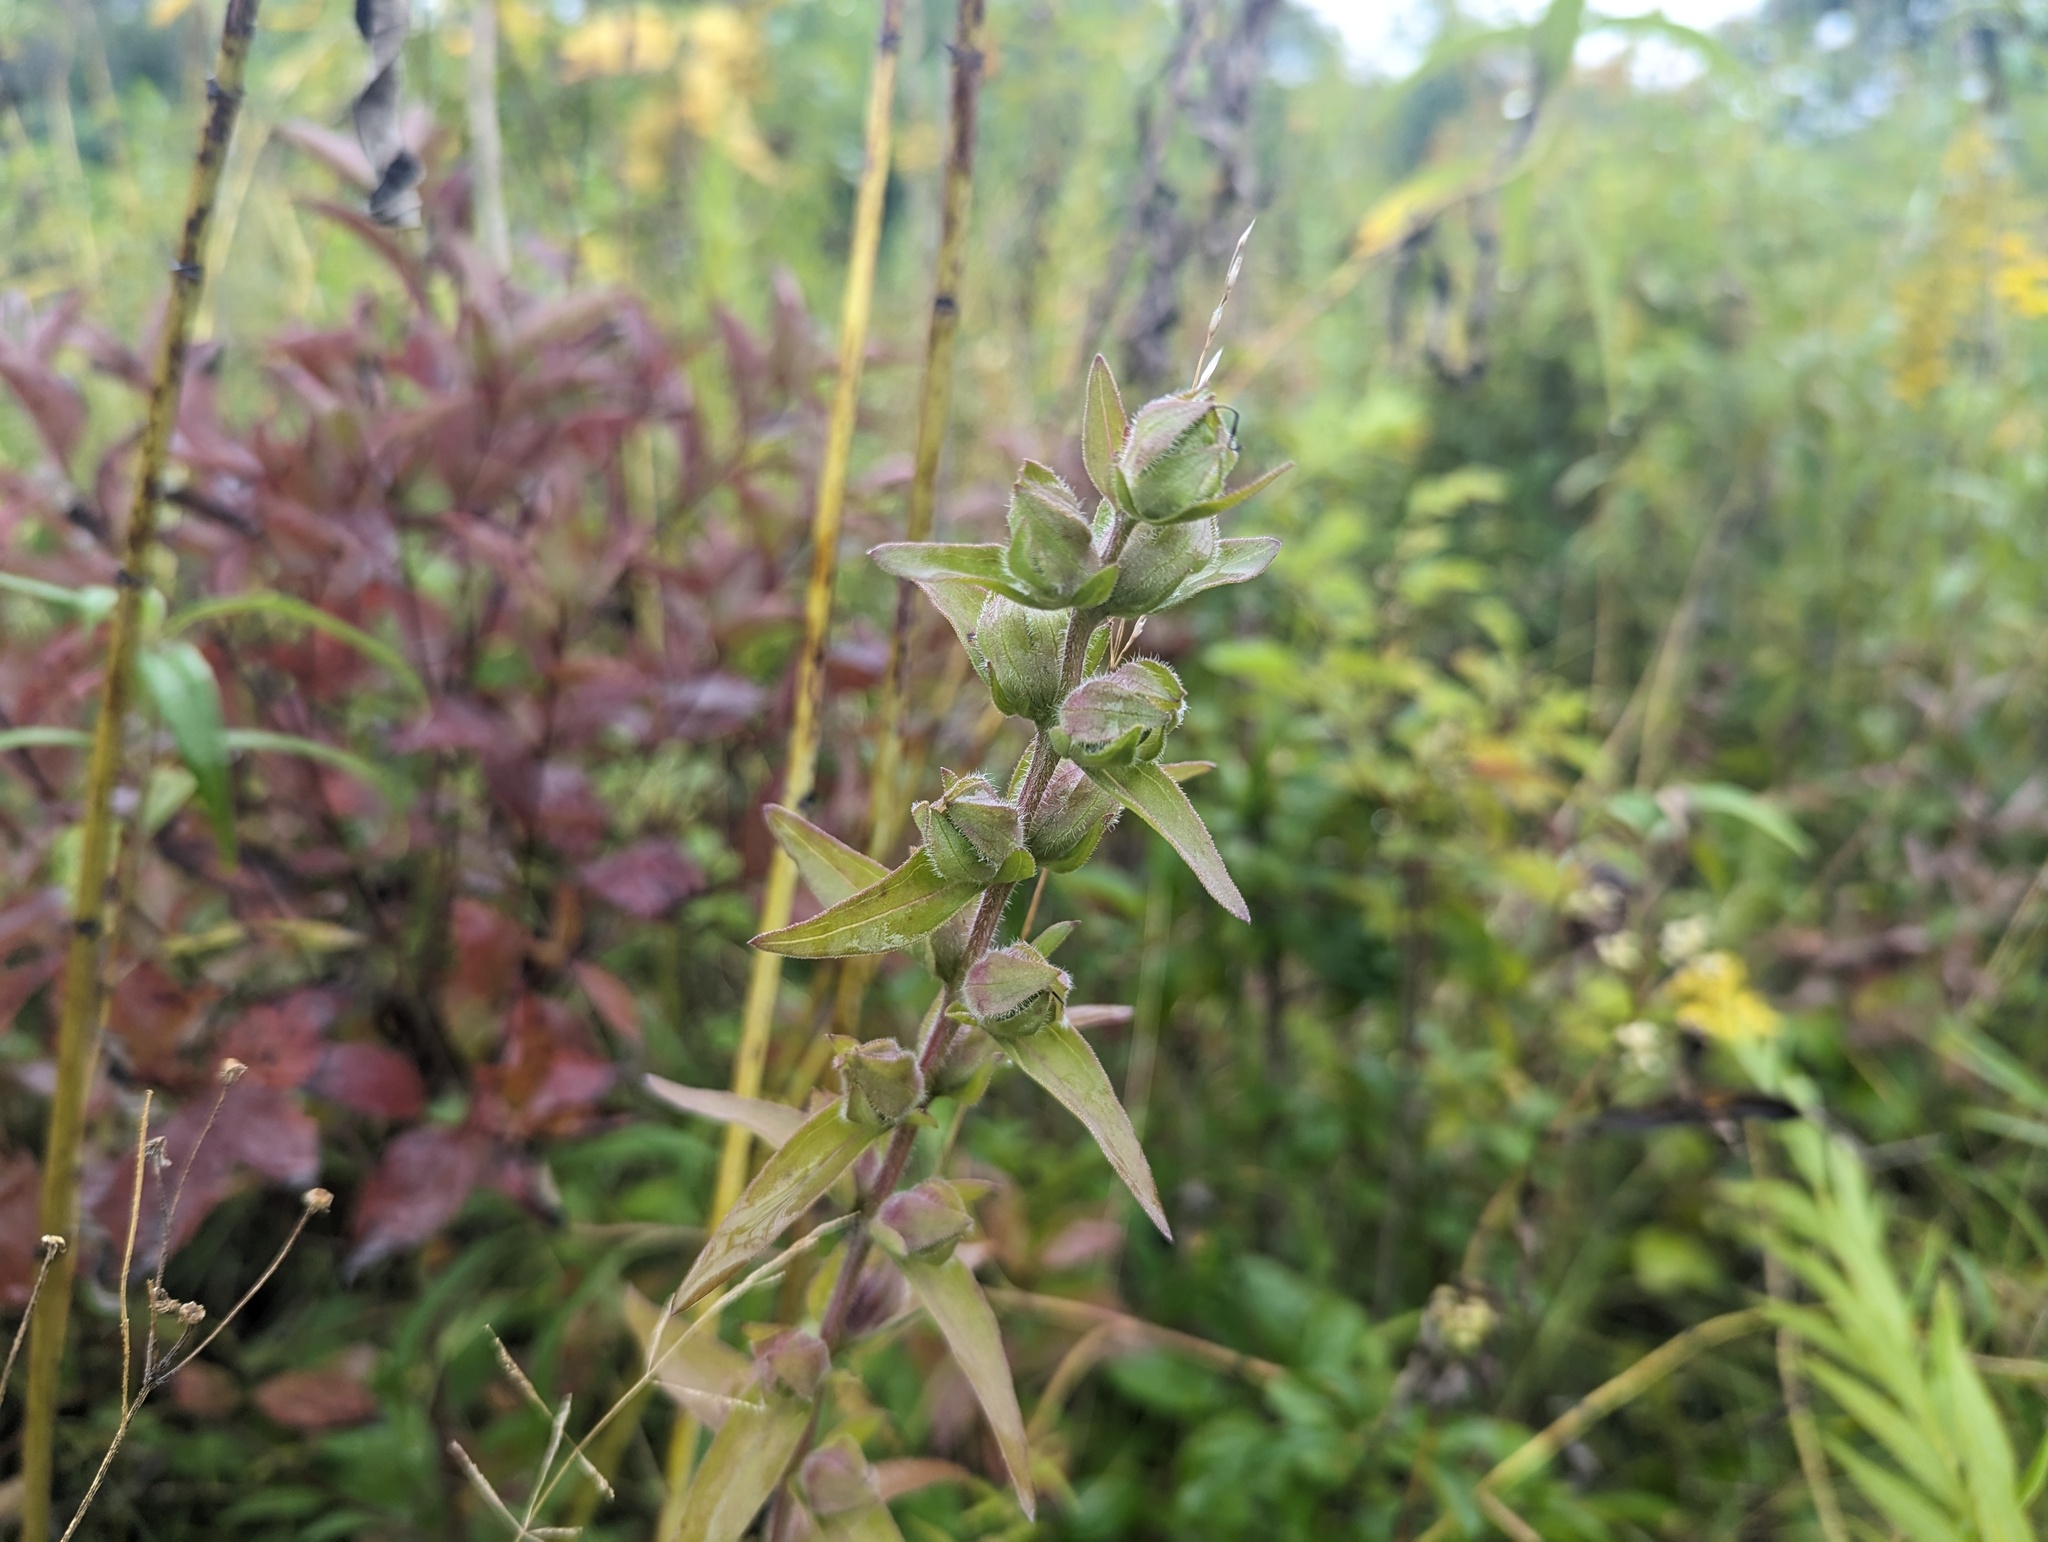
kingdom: Plantae
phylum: Tracheophyta
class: Magnoliopsida
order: Lamiales
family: Orobanchaceae
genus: Agalinis
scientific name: Agalinis auriculata
